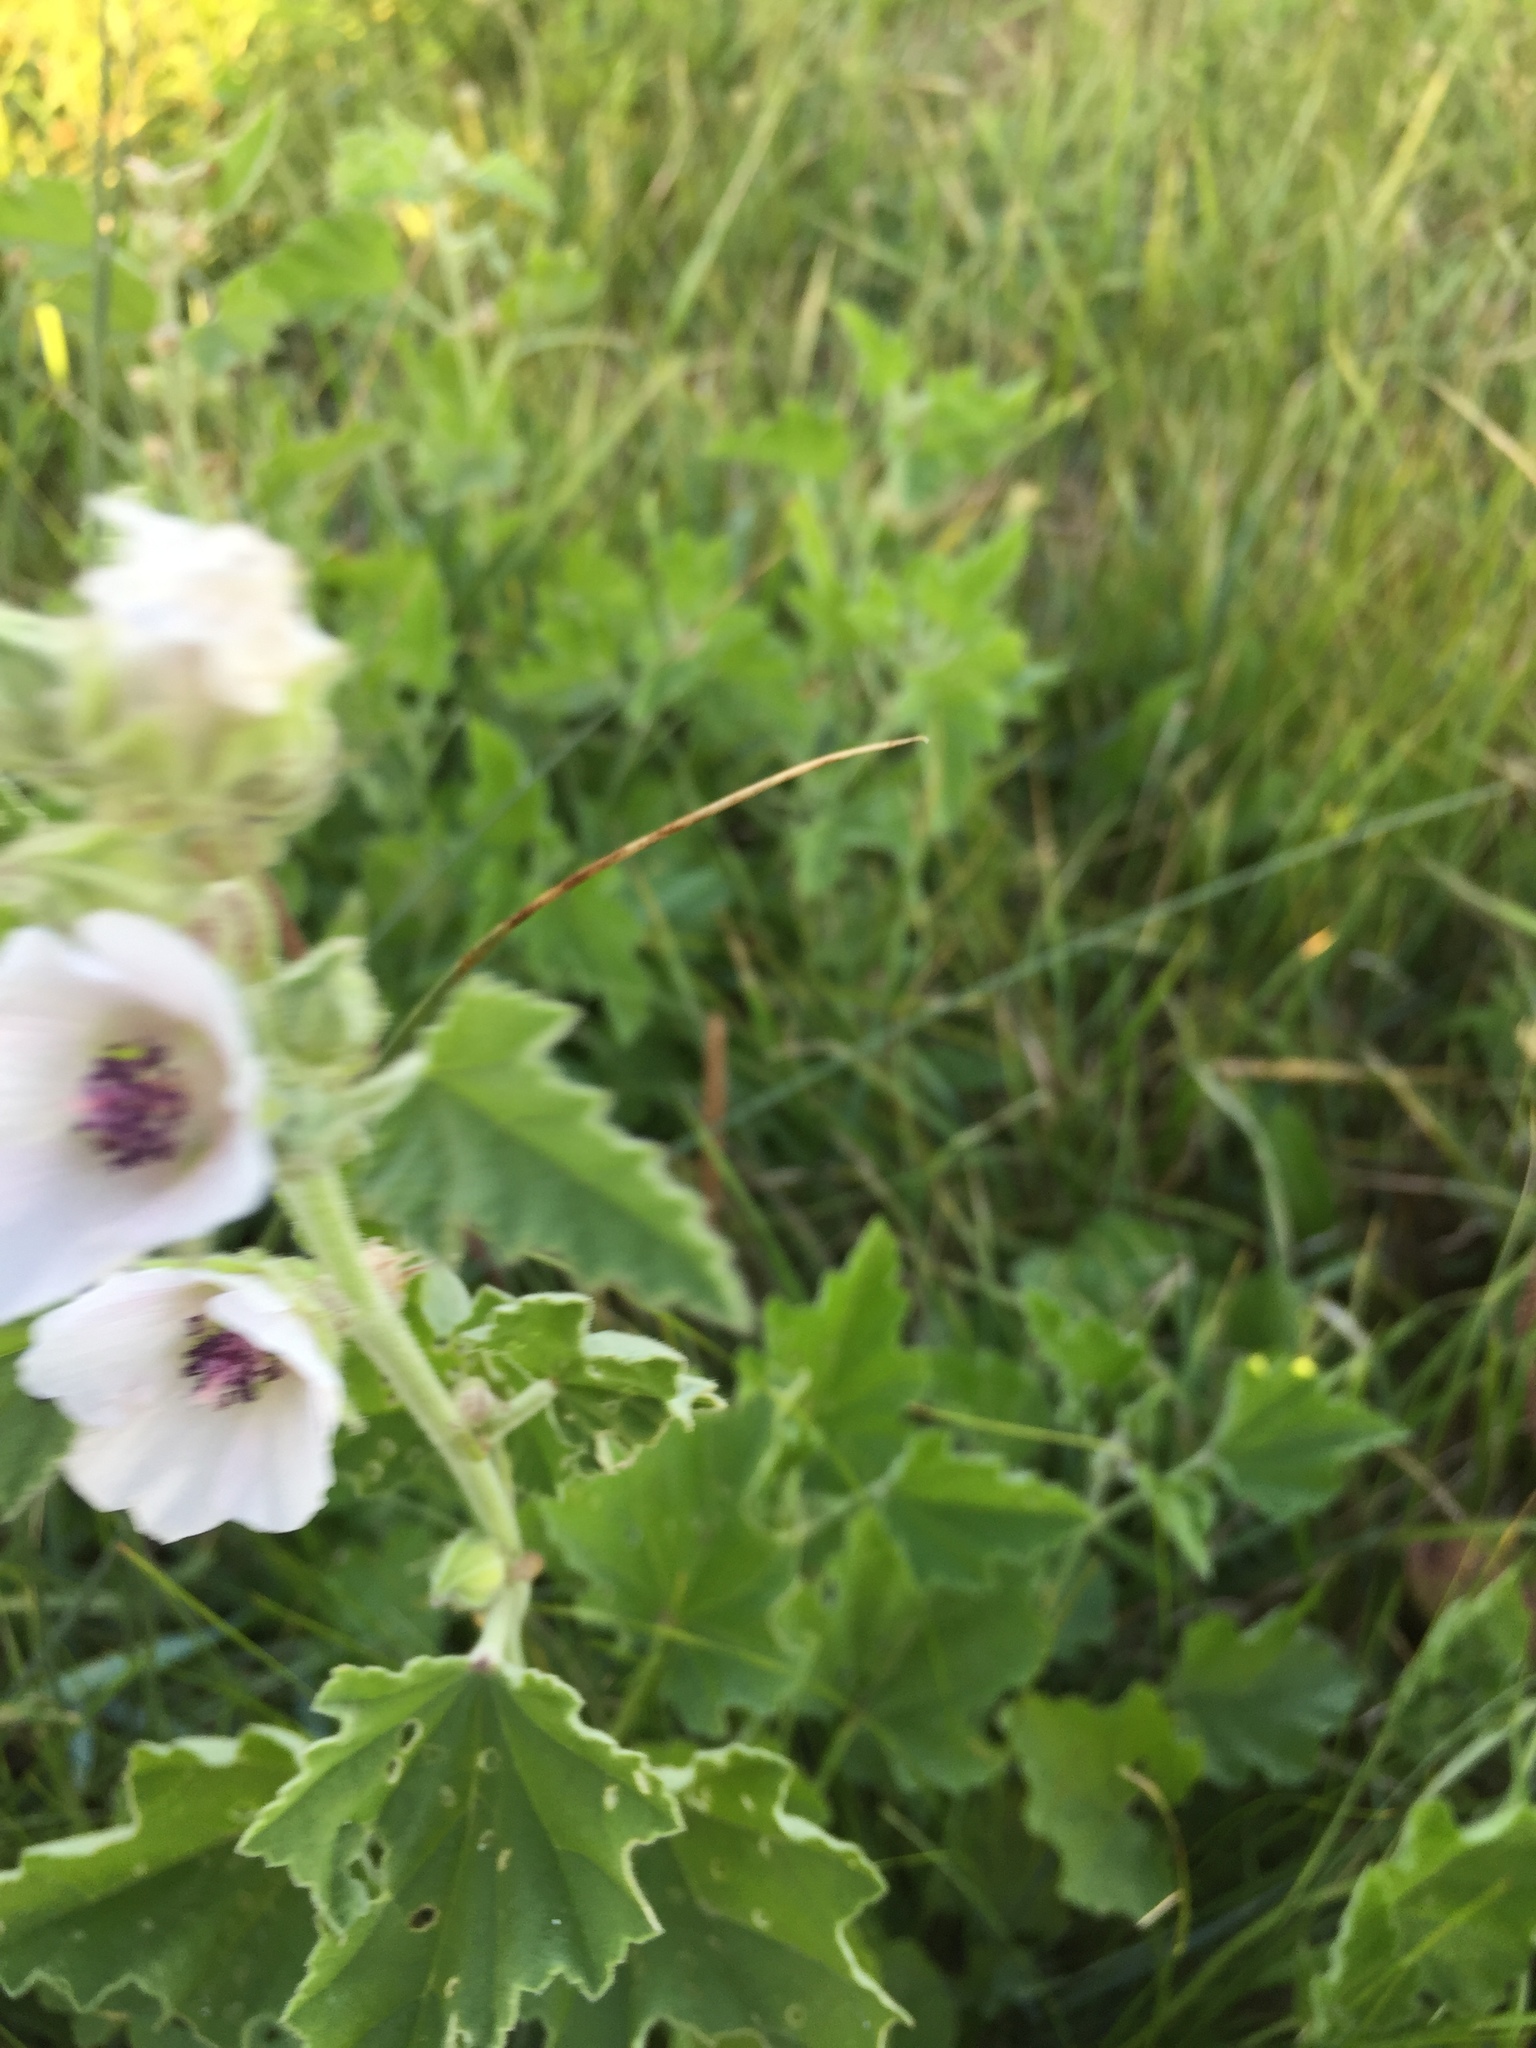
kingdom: Plantae
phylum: Tracheophyta
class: Magnoliopsida
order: Malvales
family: Malvaceae
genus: Althaea
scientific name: Althaea officinalis
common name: Marsh-mallow
